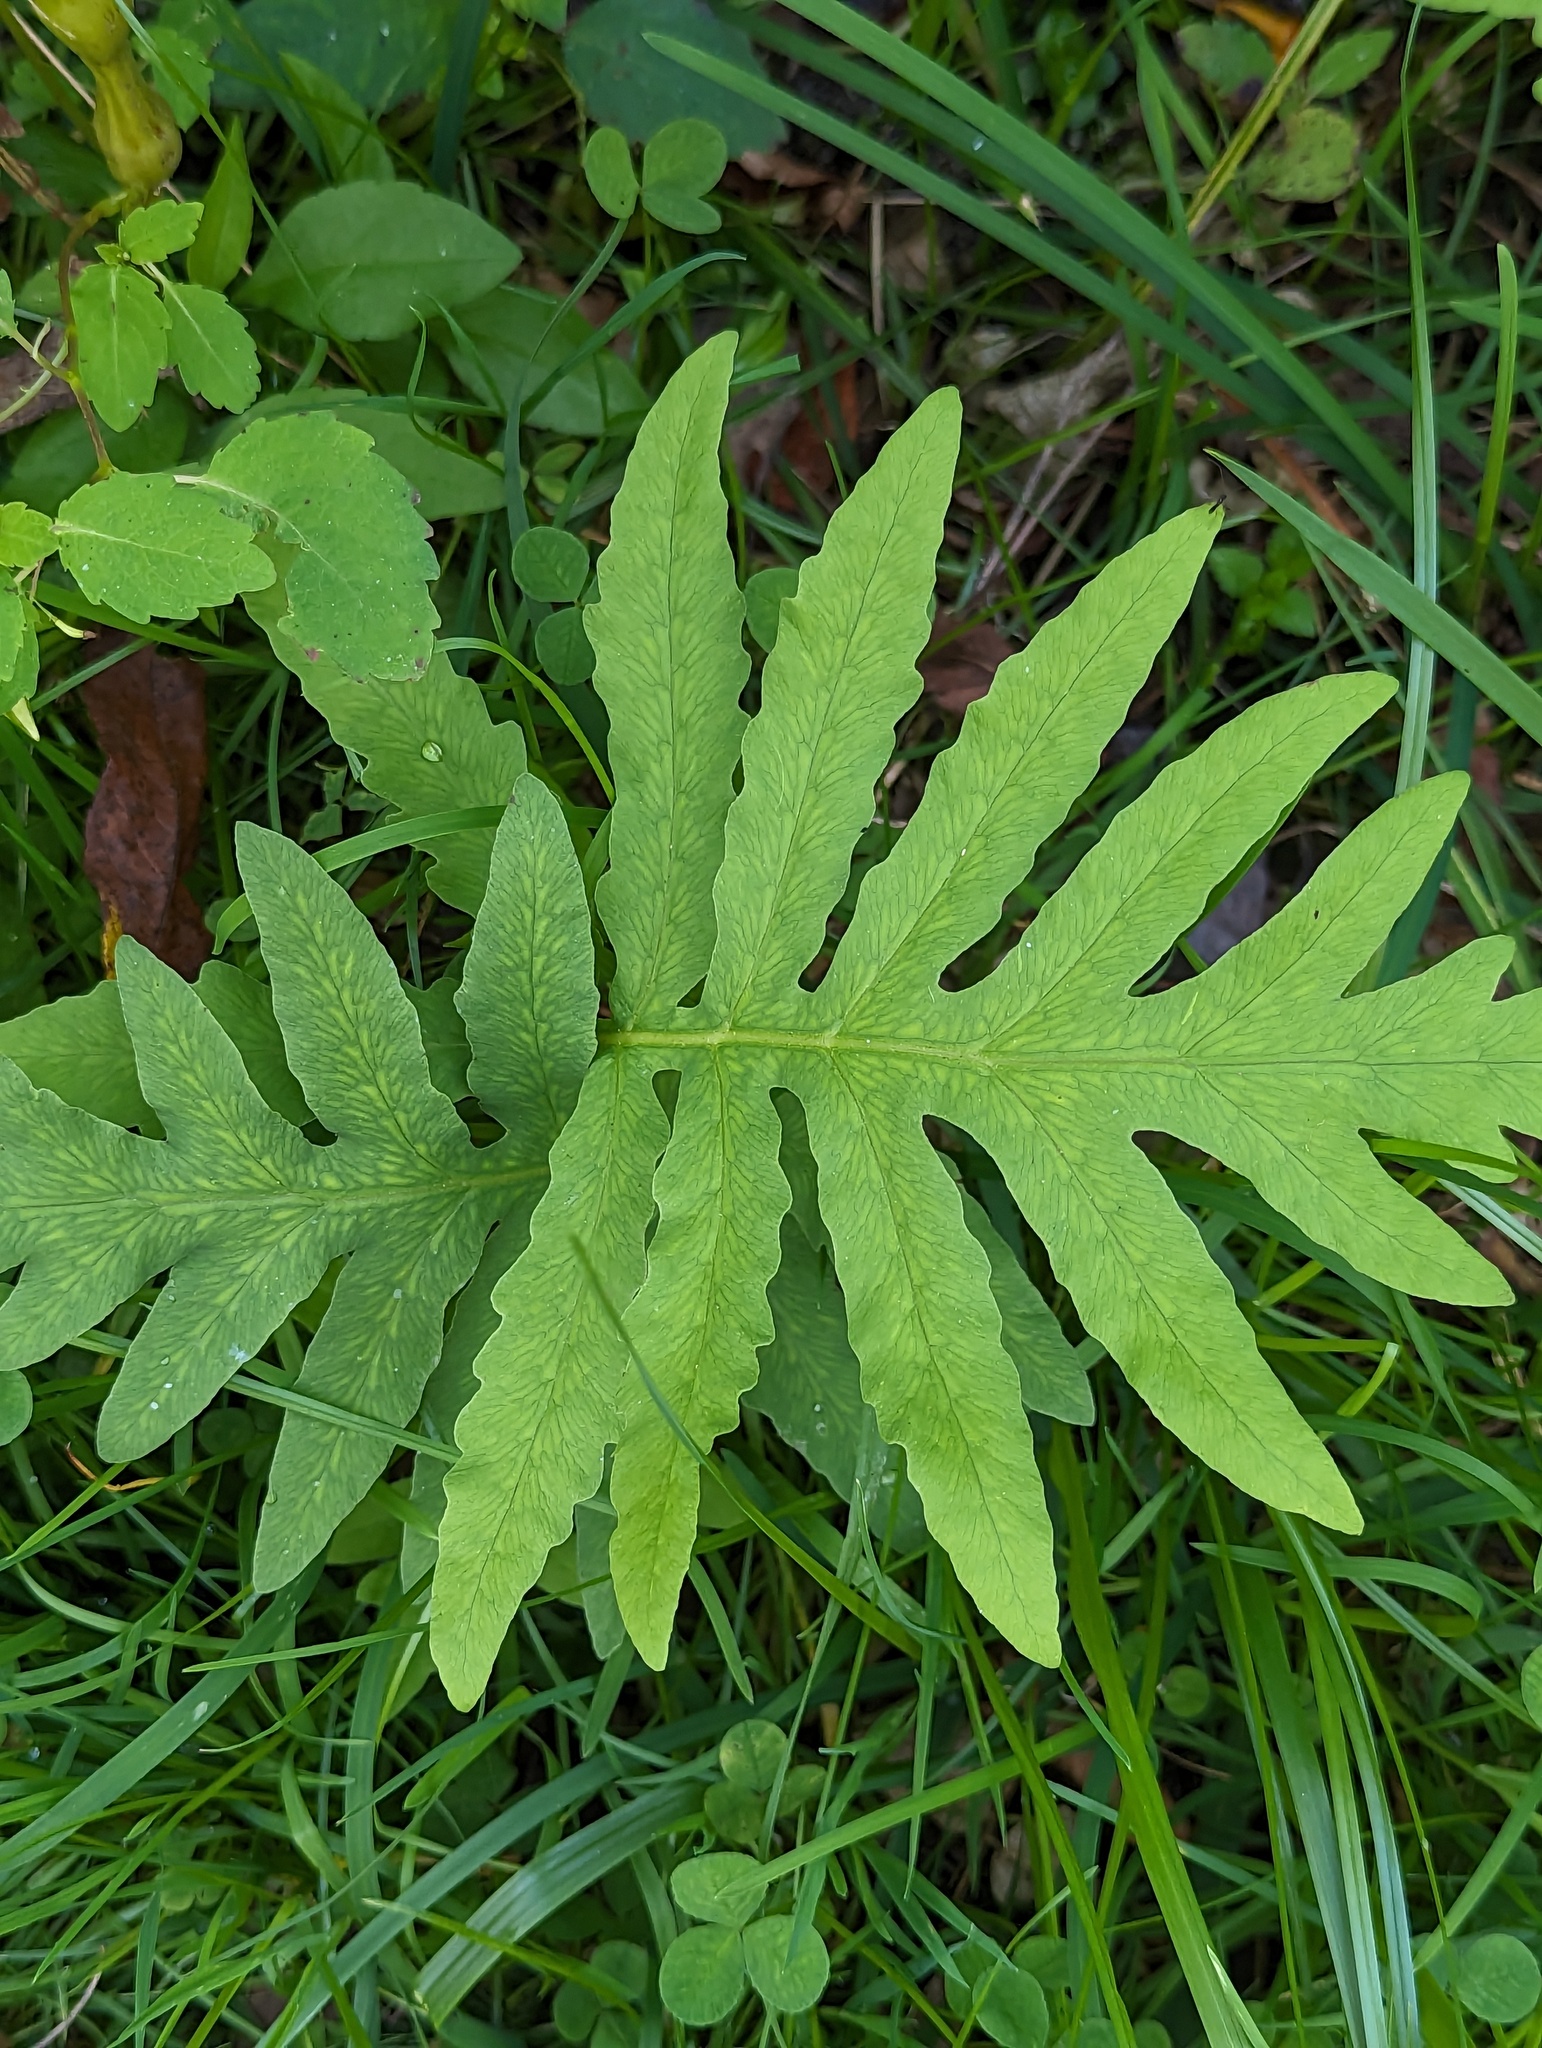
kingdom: Plantae
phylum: Tracheophyta
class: Polypodiopsida
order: Polypodiales
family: Onocleaceae
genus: Onoclea
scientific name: Onoclea sensibilis
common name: Sensitive fern
